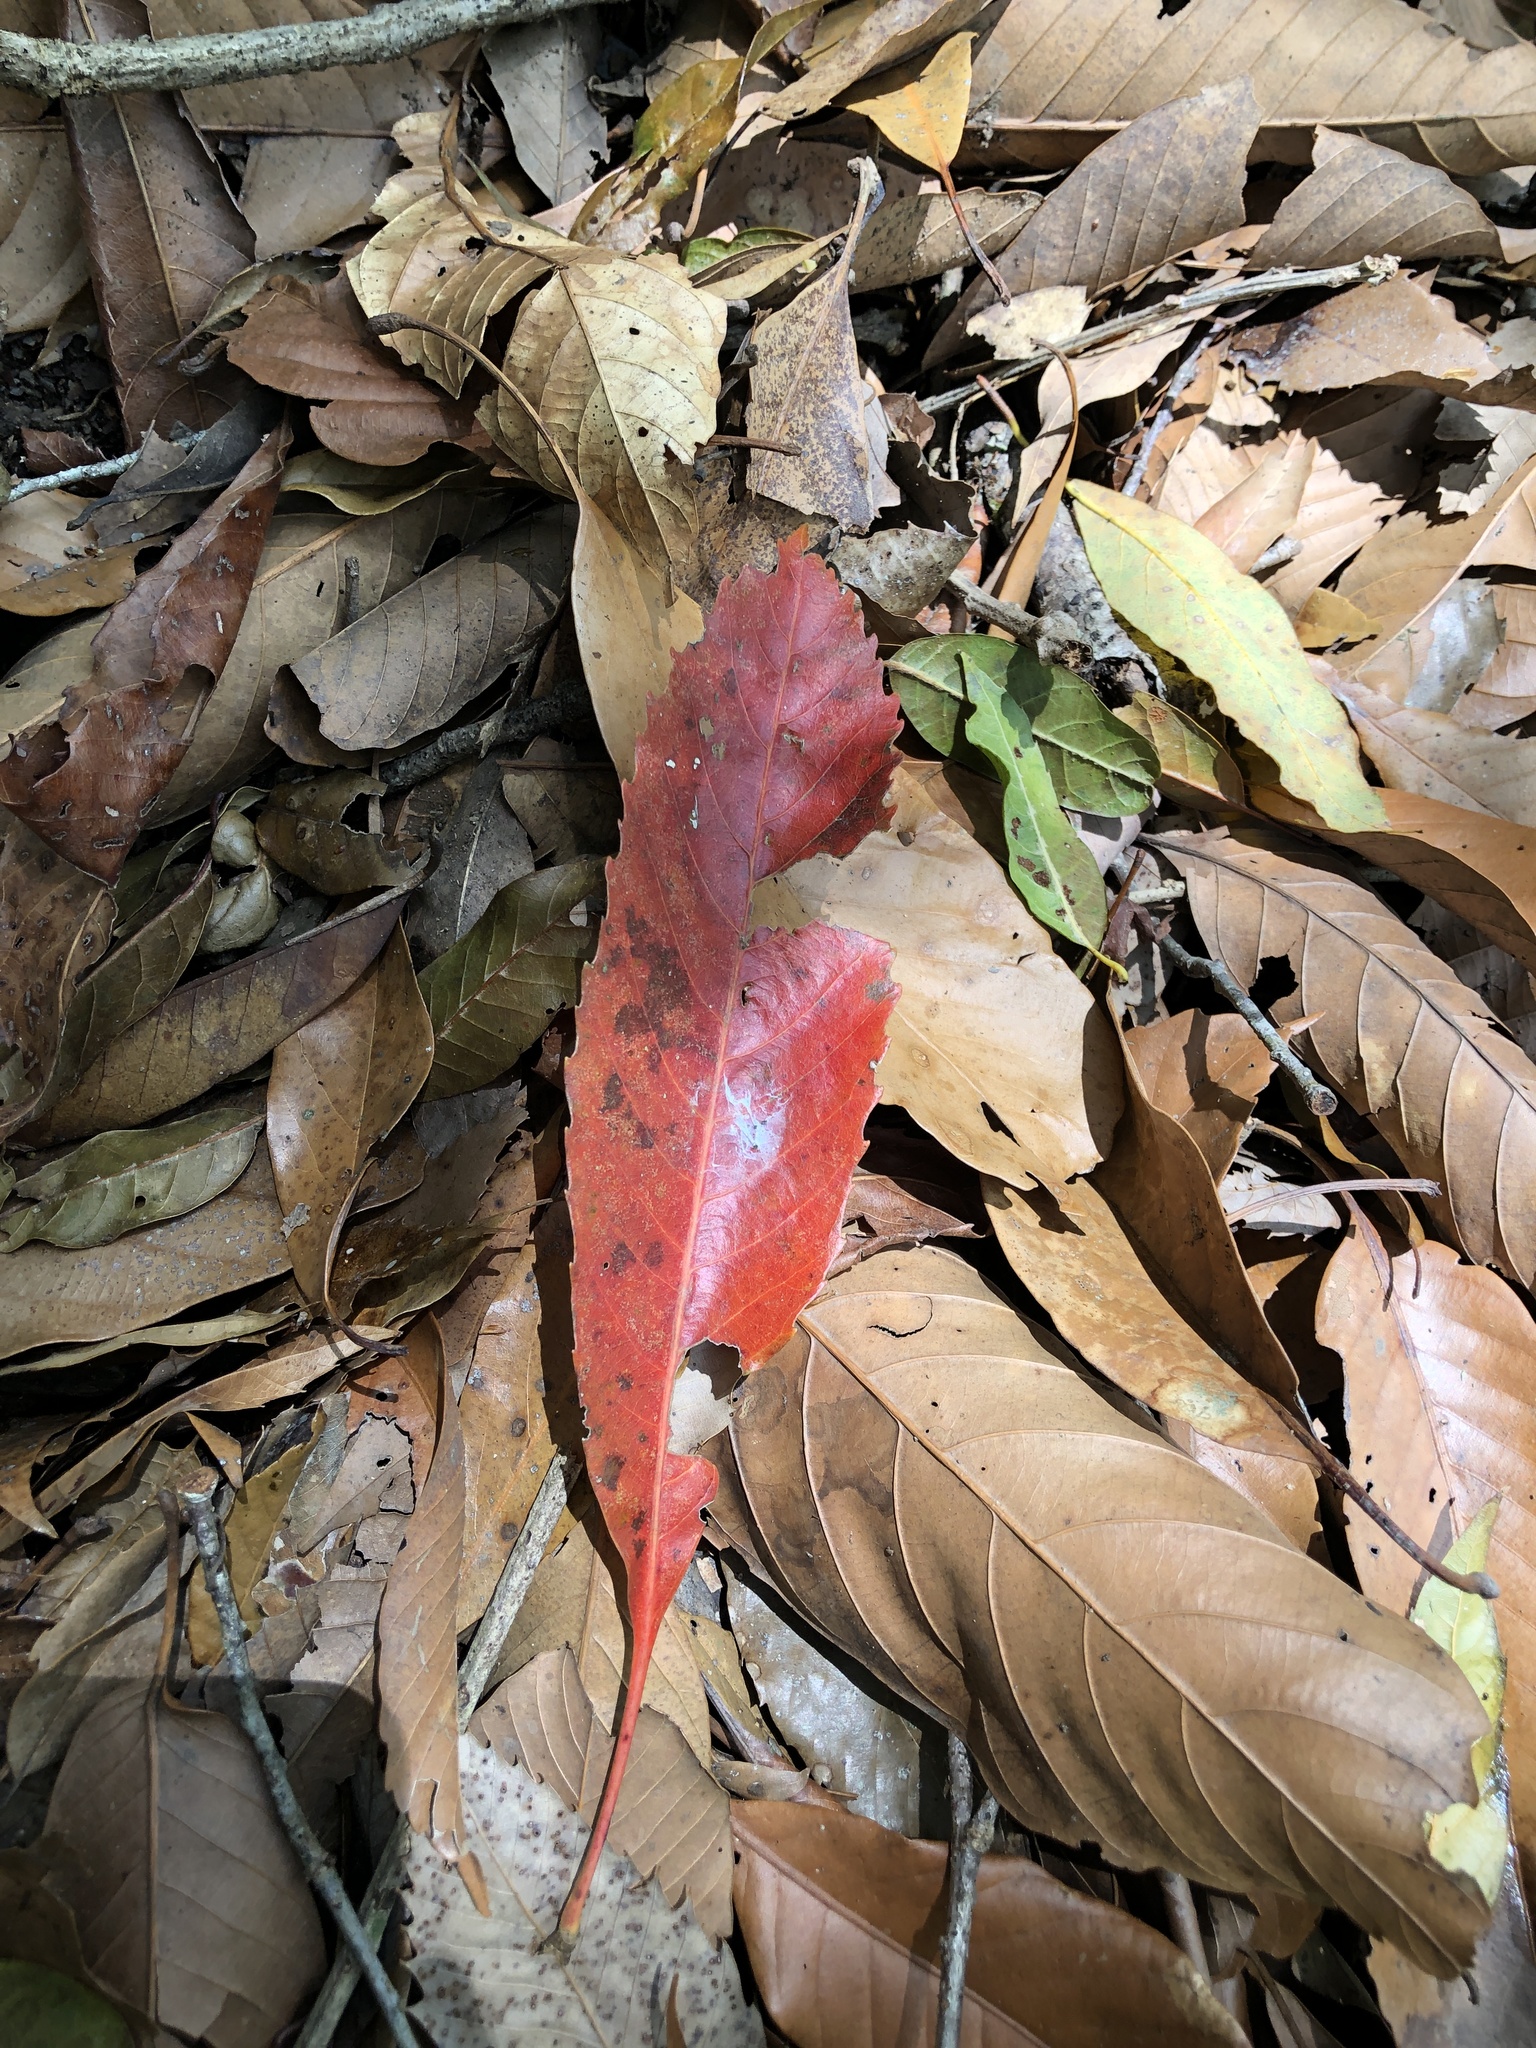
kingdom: Plantae
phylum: Tracheophyta
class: Magnoliopsida
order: Rosales
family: Rosaceae
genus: Rhaphiolepis
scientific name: Rhaphiolepis deflexa
